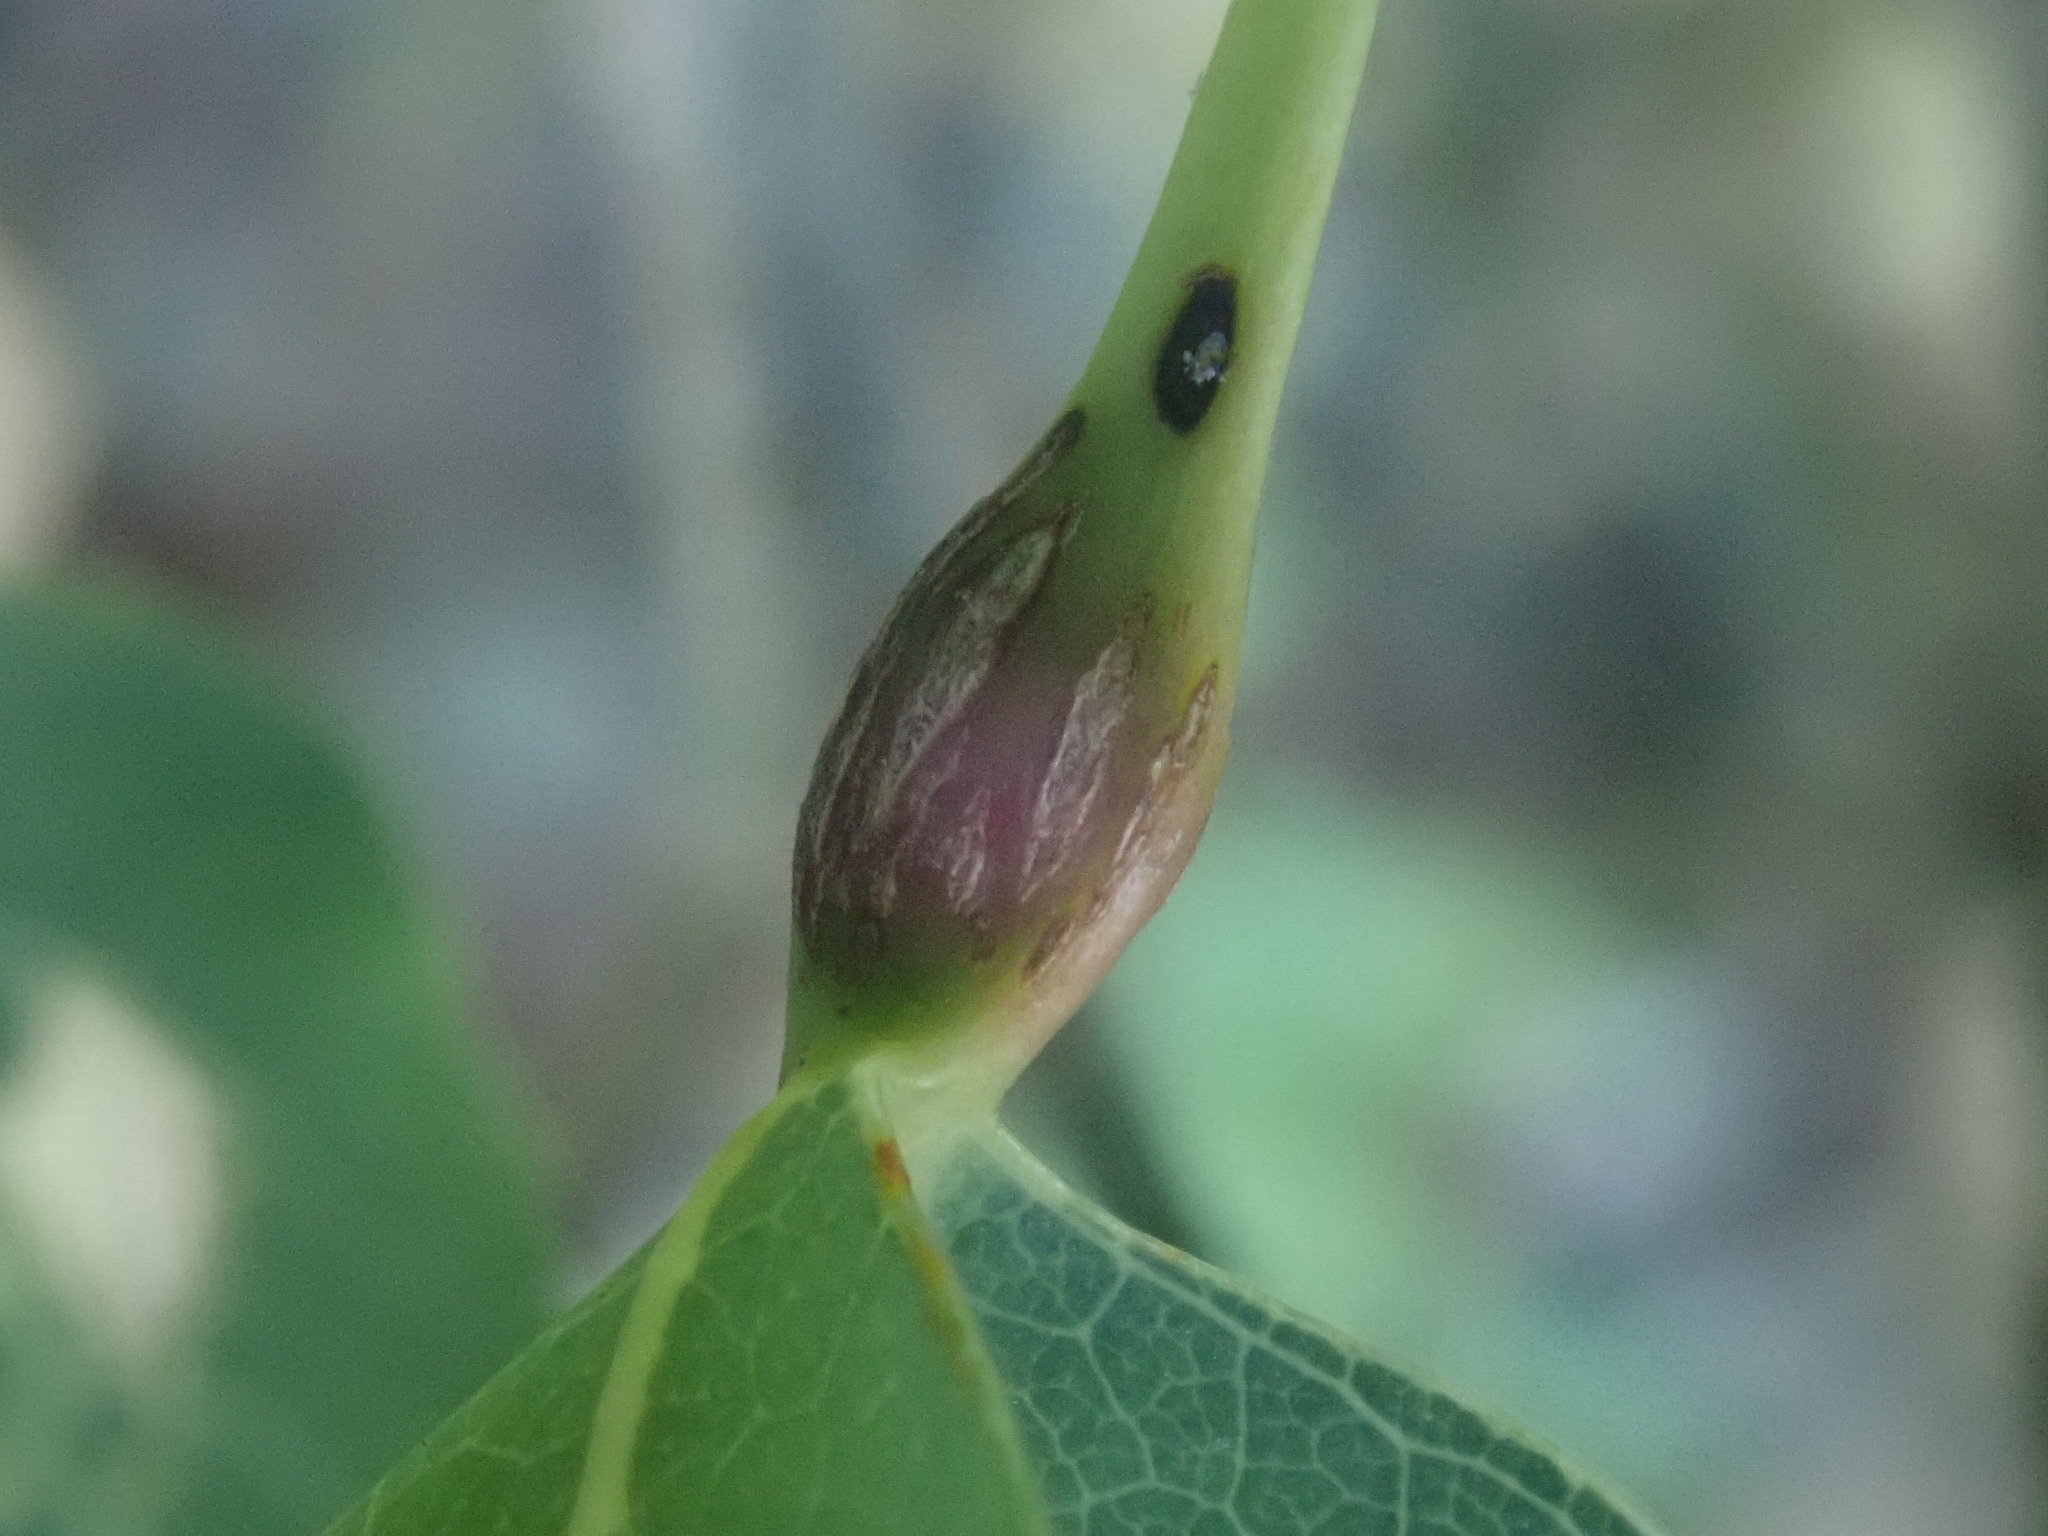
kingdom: Animalia
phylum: Arthropoda
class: Insecta
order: Lepidoptera
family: Nepticulidae
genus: Ectoedemia
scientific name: Ectoedemia populella
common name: Aspen petiole gall moth
